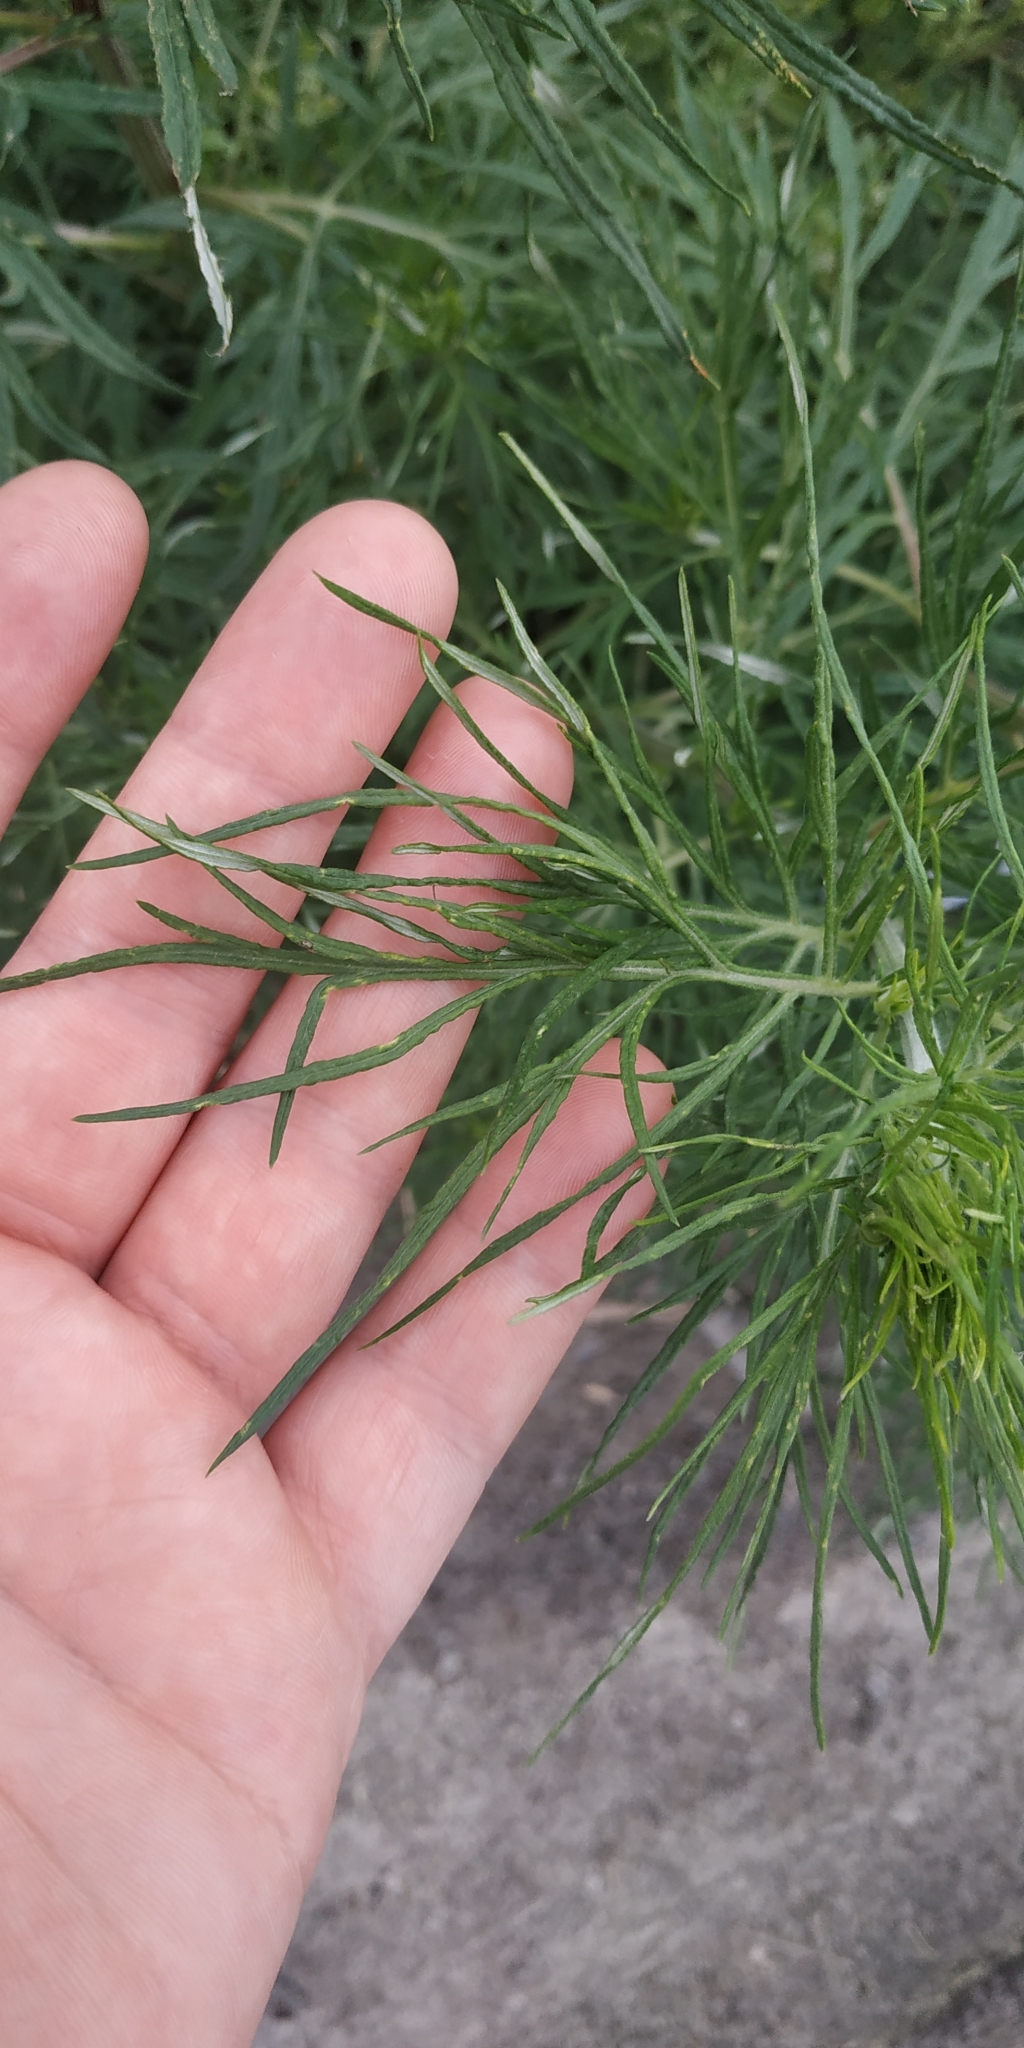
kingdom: Plantae
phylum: Tracheophyta
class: Magnoliopsida
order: Asterales
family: Asteraceae
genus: Artemisia
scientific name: Artemisia vulgaris
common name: Mugwort
